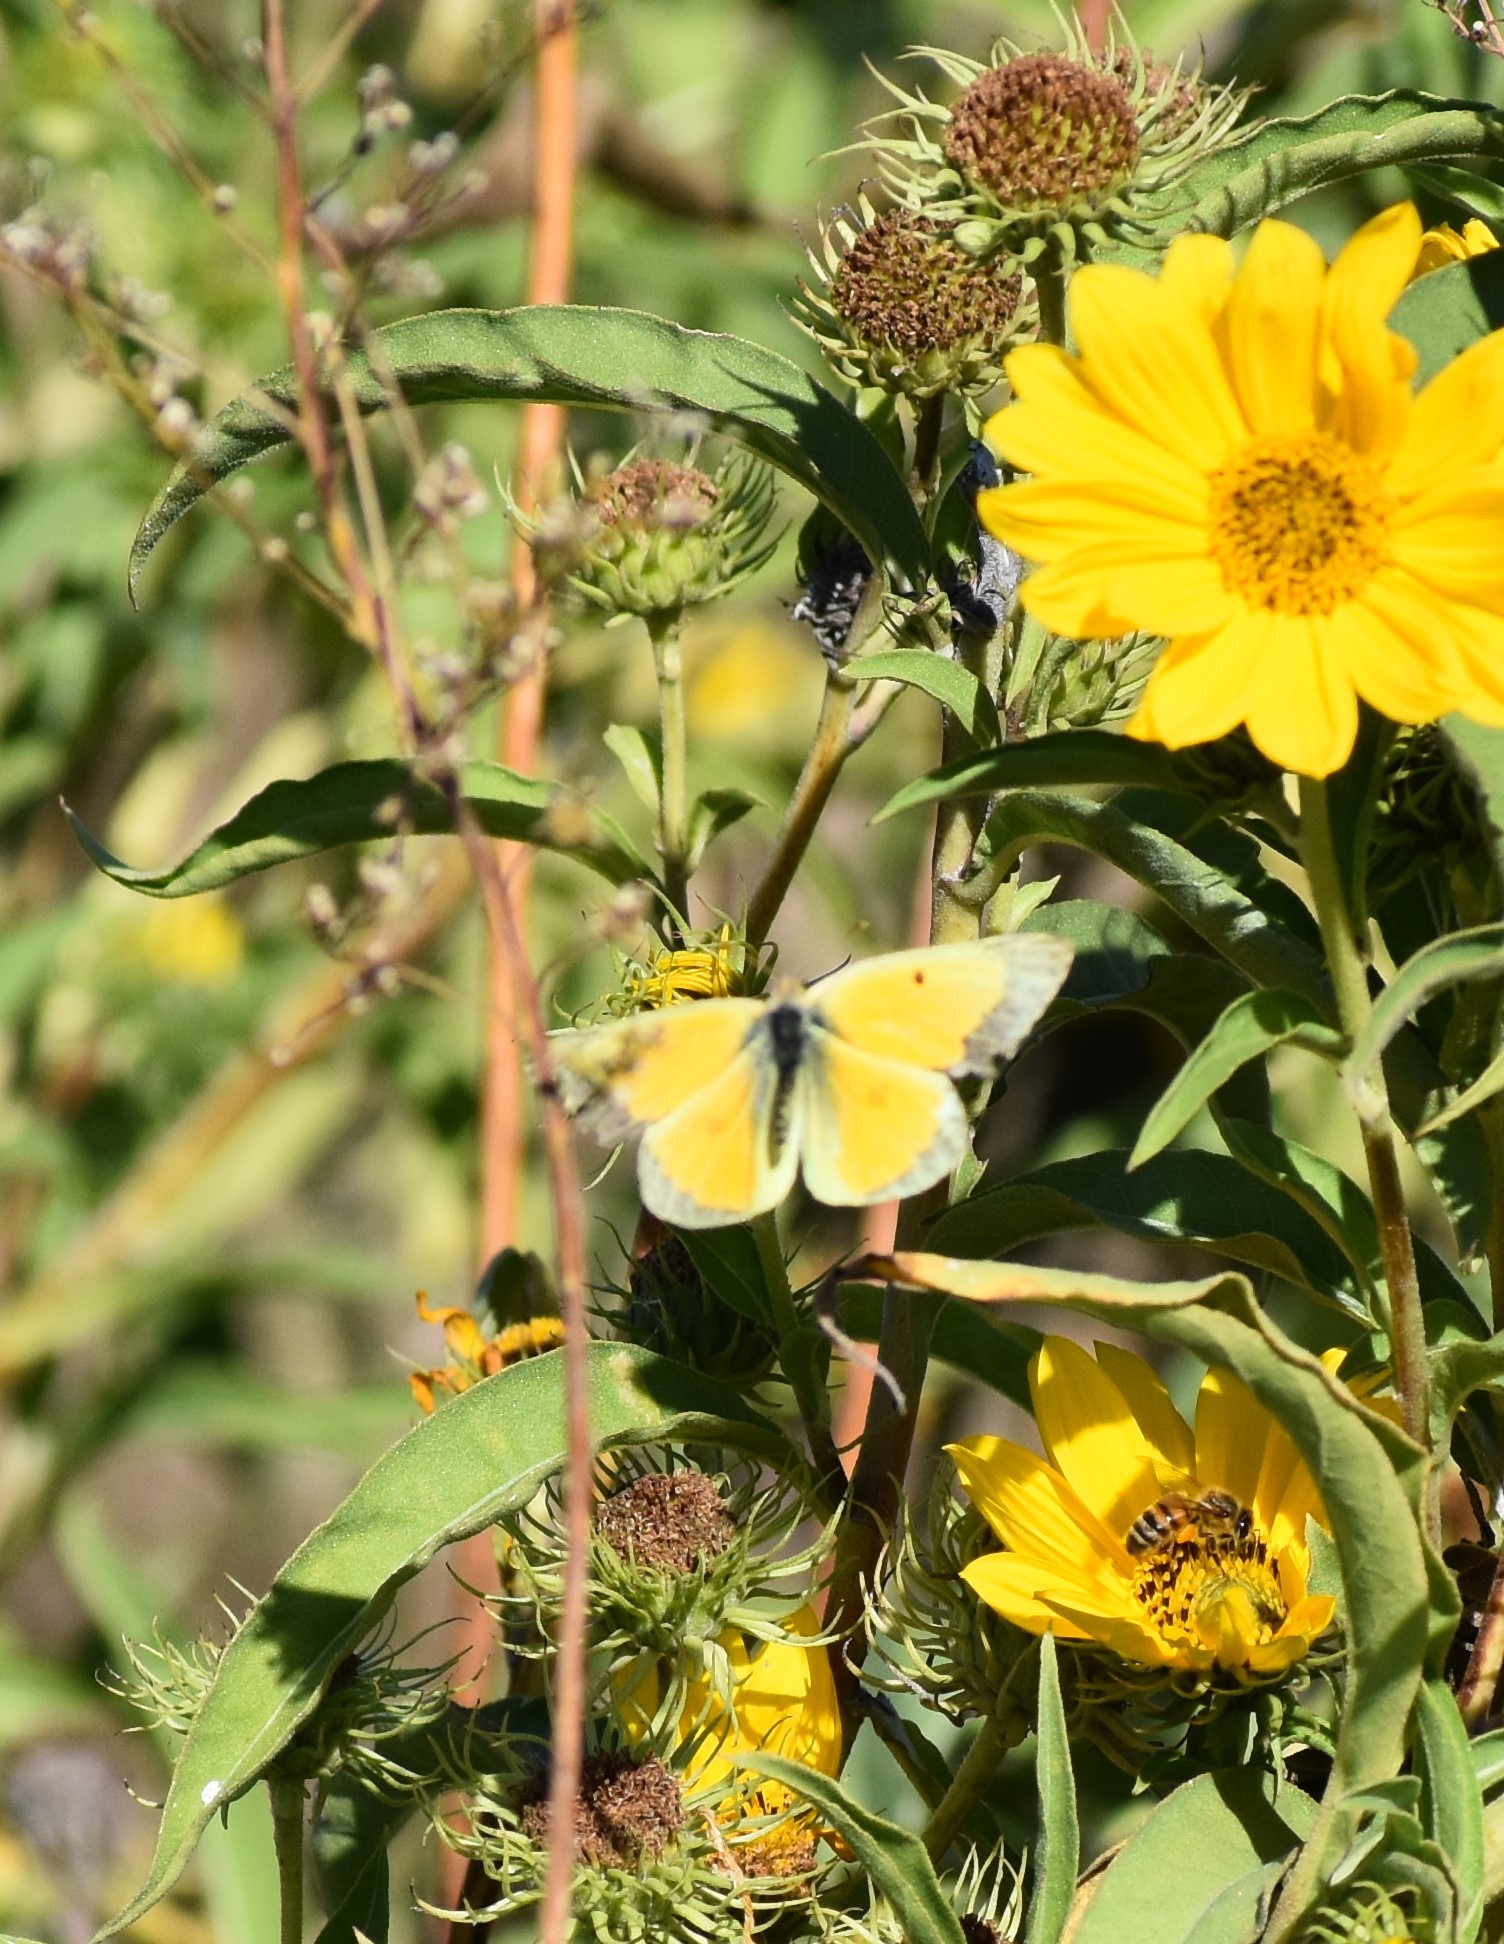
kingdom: Animalia
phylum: Arthropoda
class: Insecta
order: Lepidoptera
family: Pieridae
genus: Colias
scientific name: Colias eurytheme
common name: Alfalfa butterfly
